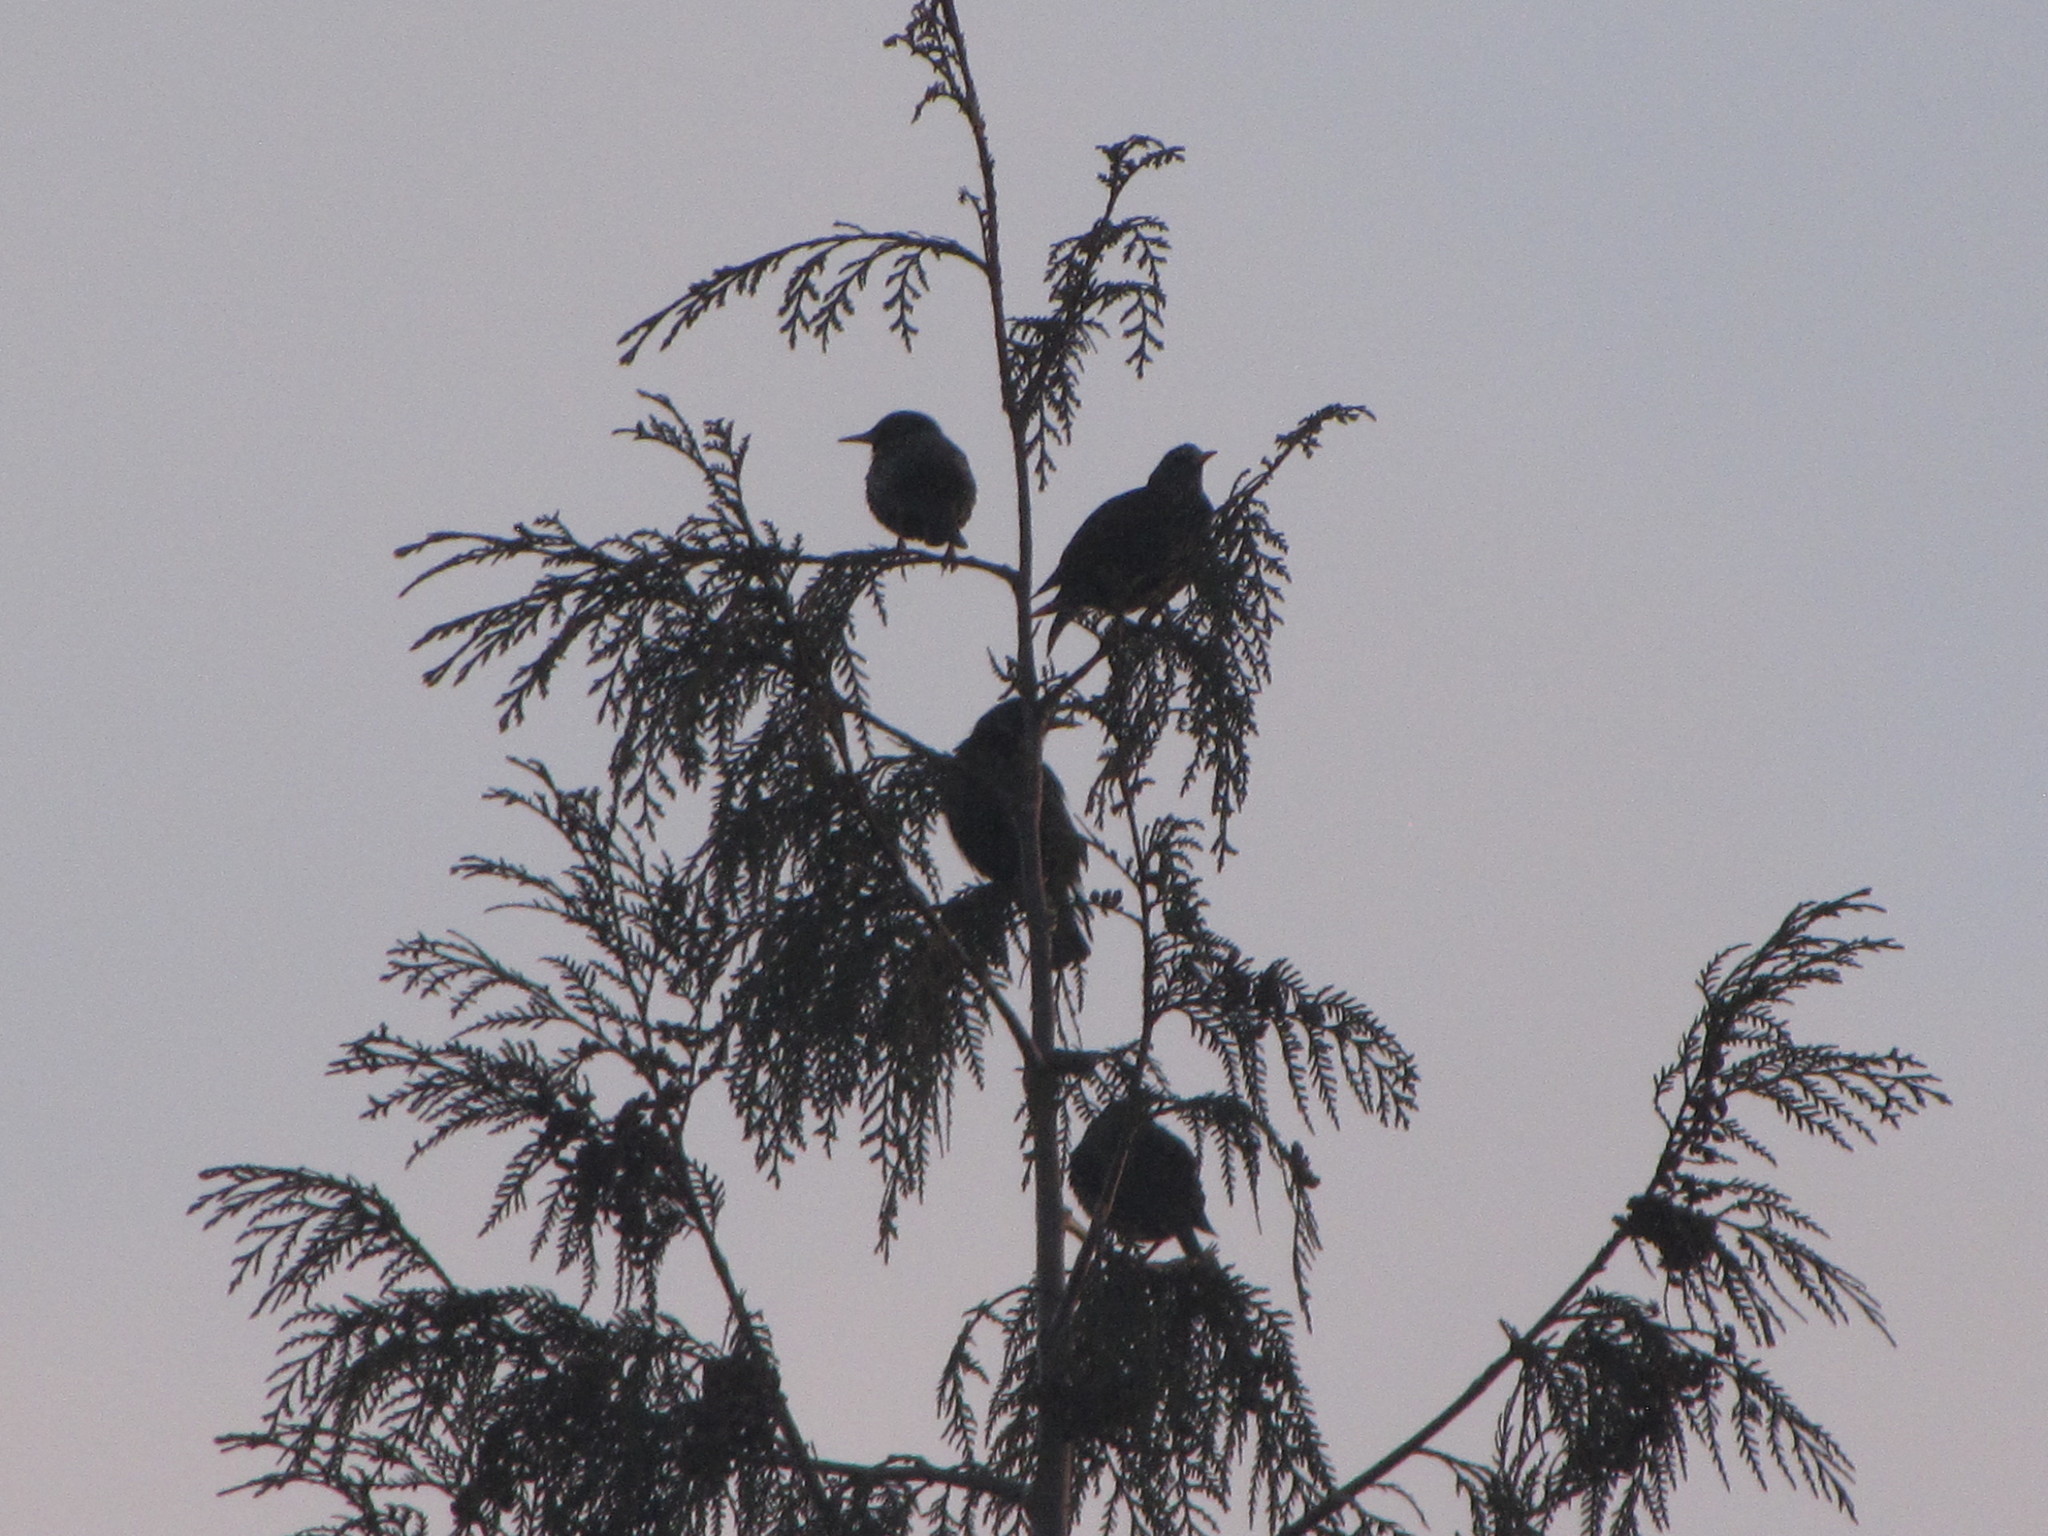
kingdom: Animalia
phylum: Chordata
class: Aves
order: Passeriformes
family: Sturnidae
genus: Sturnus
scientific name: Sturnus vulgaris
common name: Common starling
